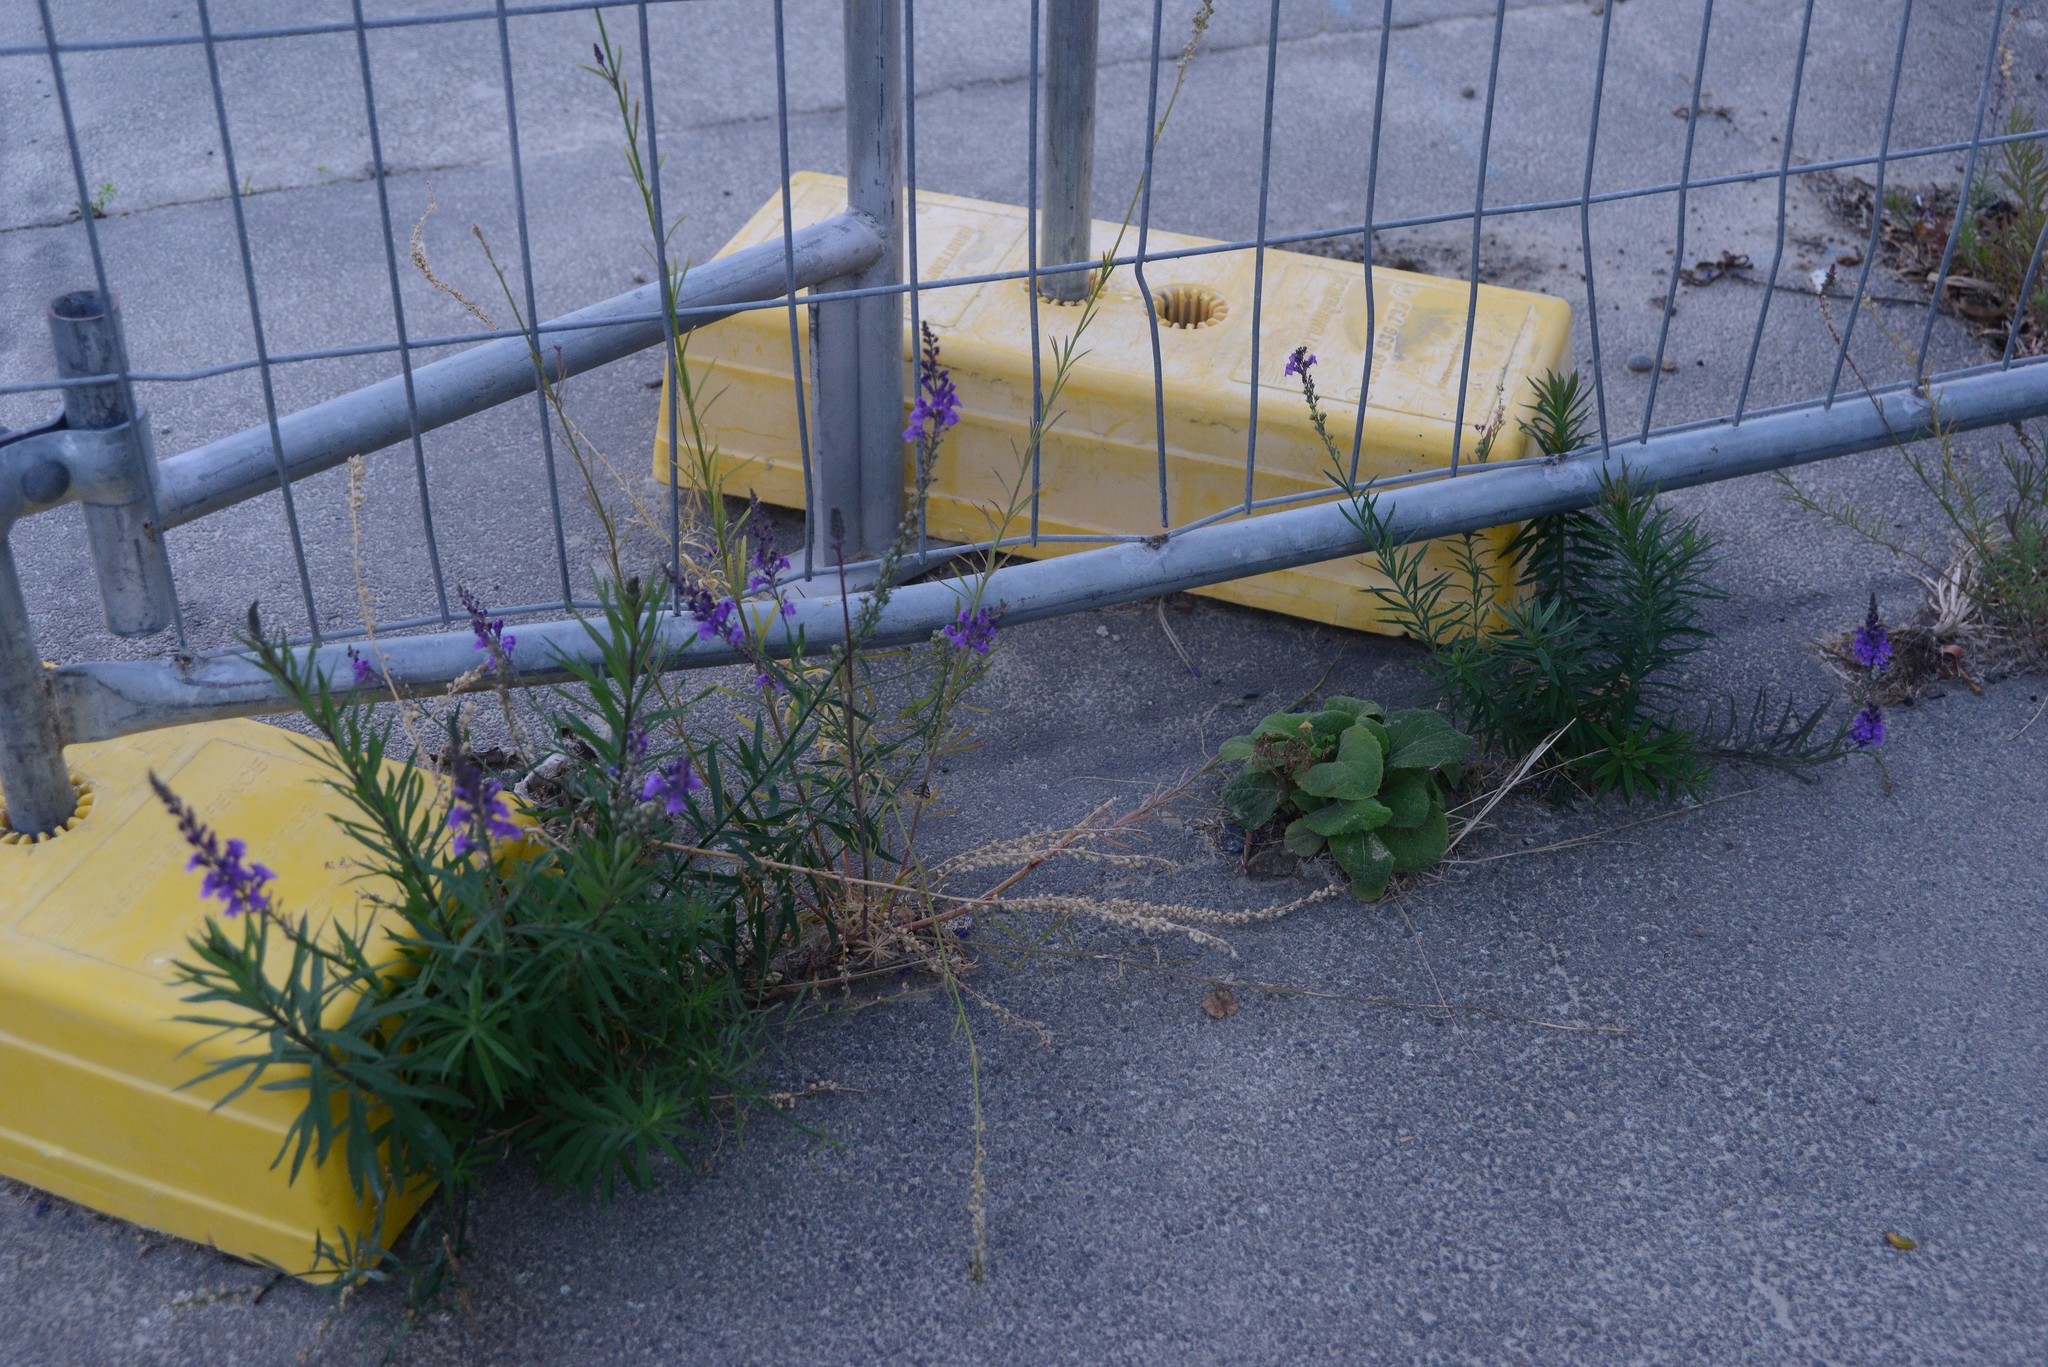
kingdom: Plantae
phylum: Tracheophyta
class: Magnoliopsida
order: Lamiales
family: Plantaginaceae
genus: Linaria
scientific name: Linaria purpurea
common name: Purple toadflax
